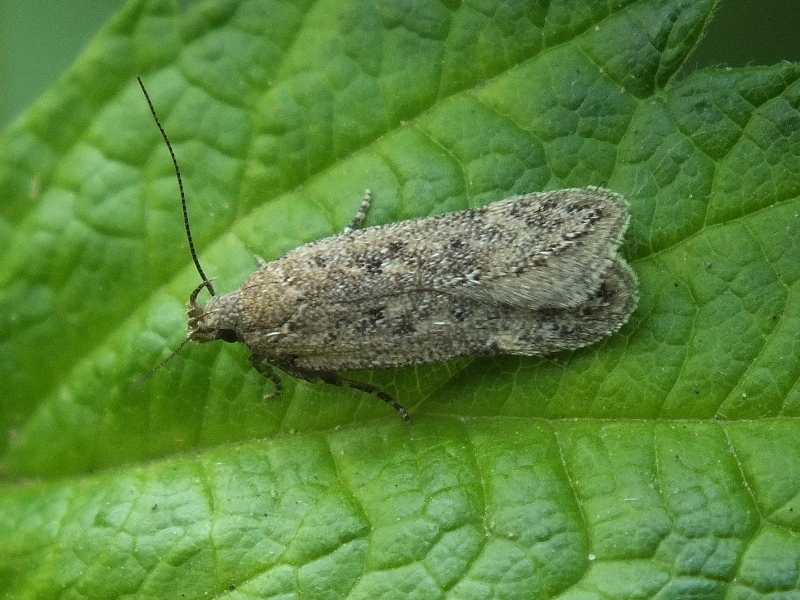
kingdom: Animalia
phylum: Arthropoda
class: Insecta
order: Lepidoptera
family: Gelechiidae
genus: Bryotropha
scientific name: Bryotropha senectella
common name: Dull red groundling
